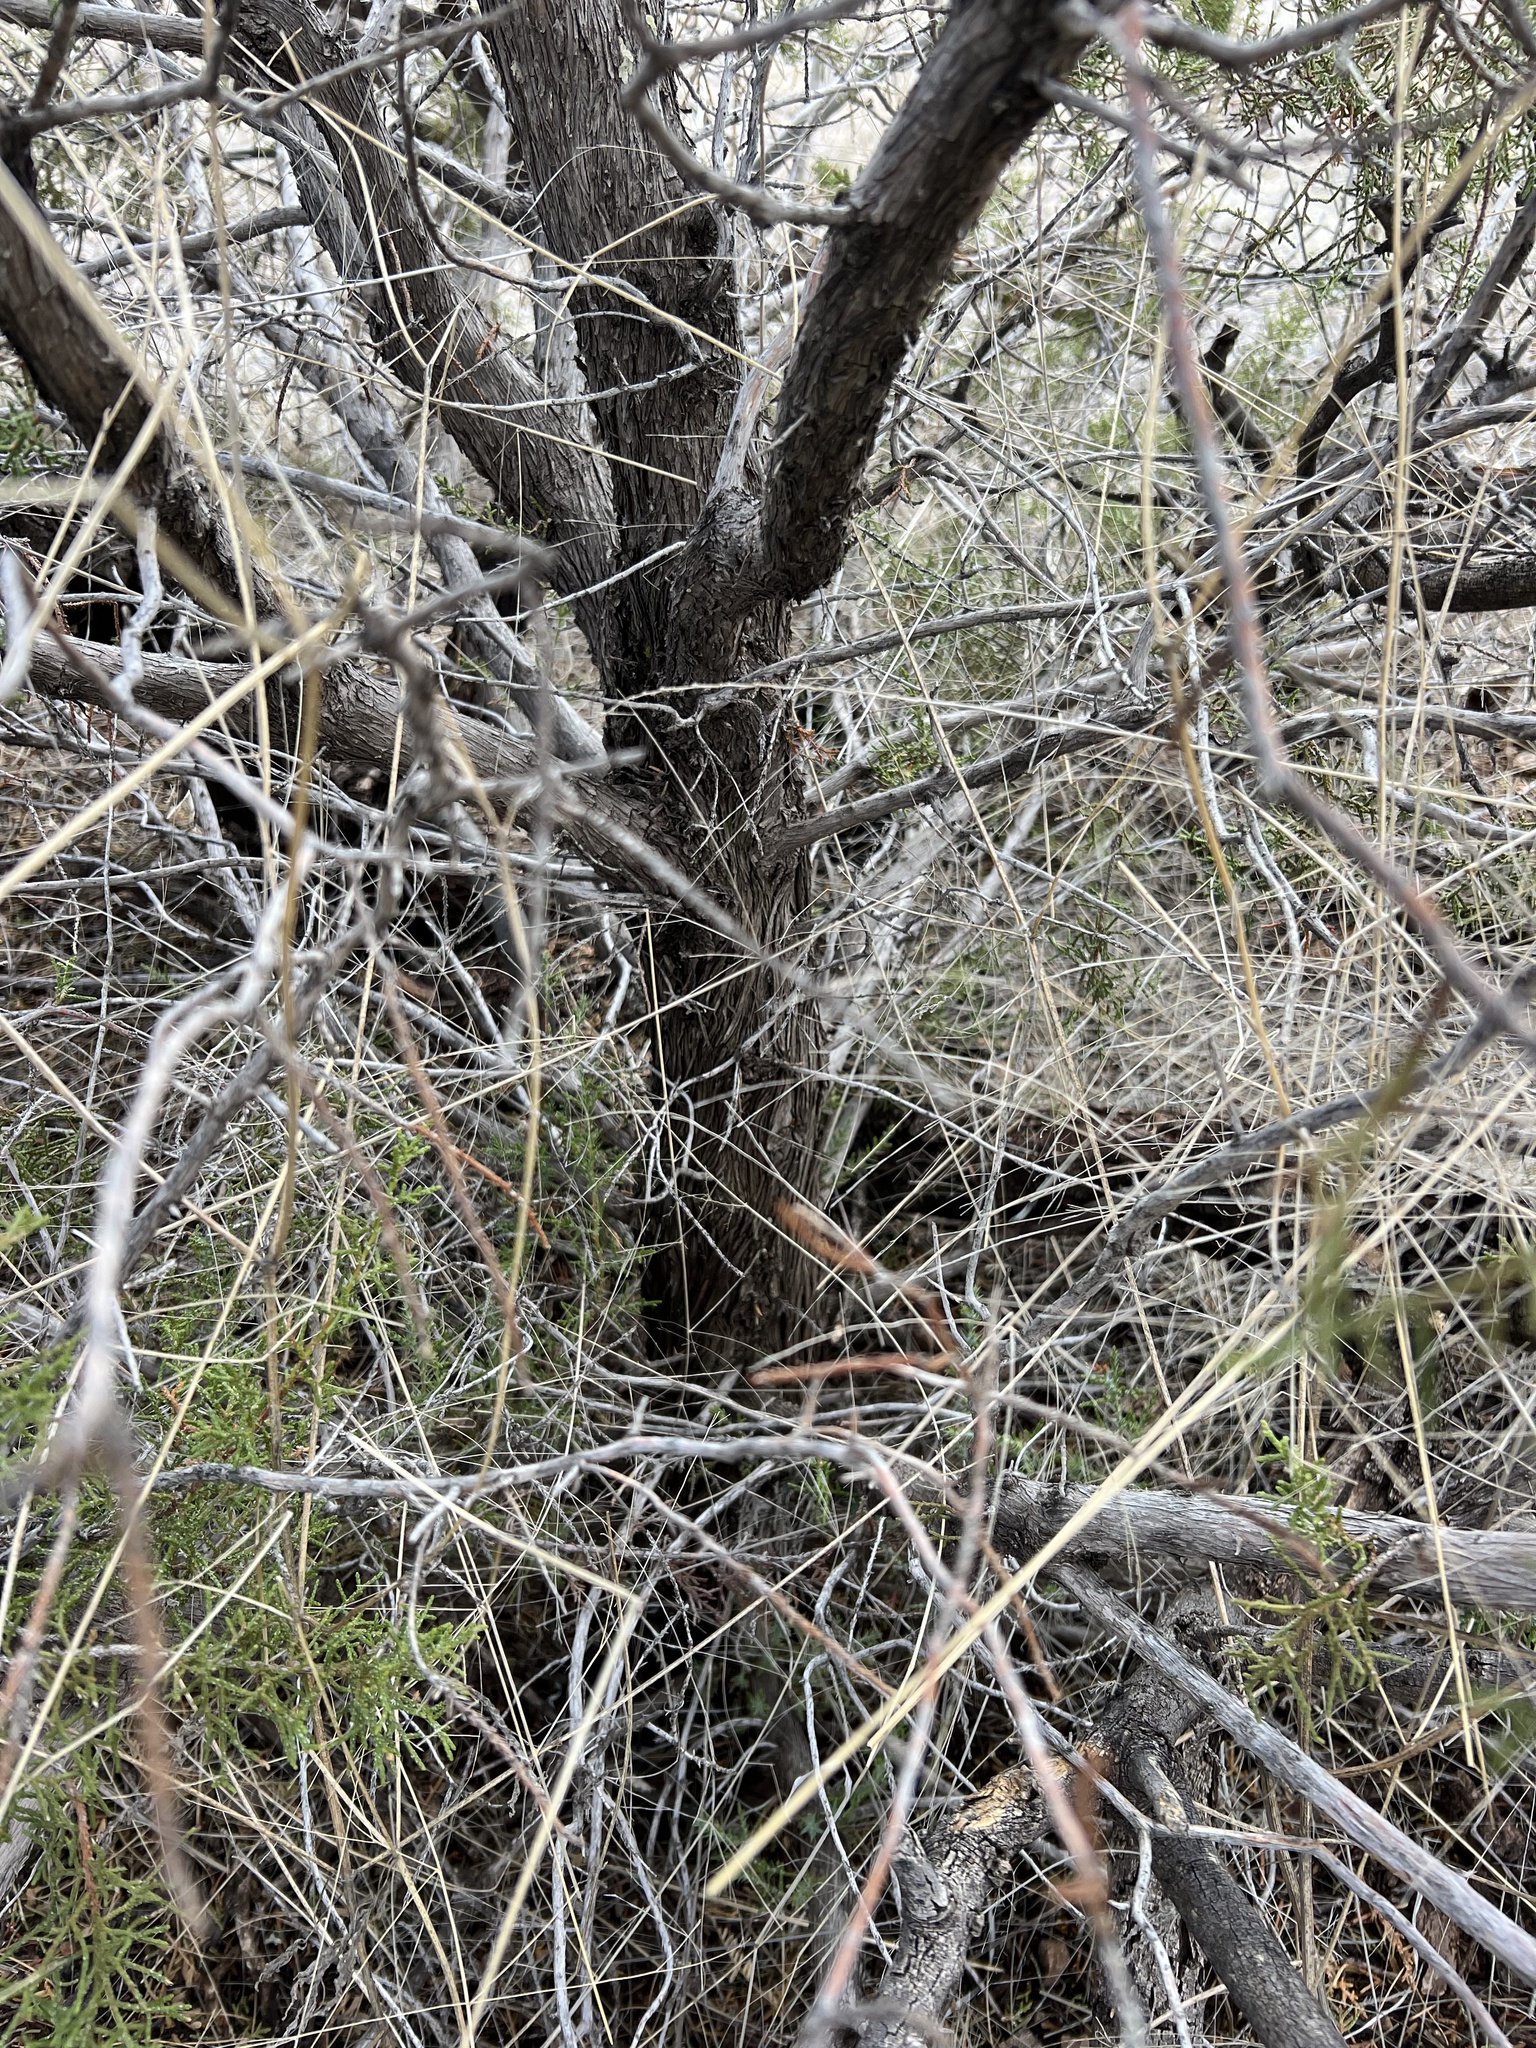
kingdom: Plantae
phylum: Tracheophyta
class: Pinopsida
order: Pinales
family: Cupressaceae
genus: Juniperus
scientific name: Juniperus arizonica
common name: Arizona juniper
